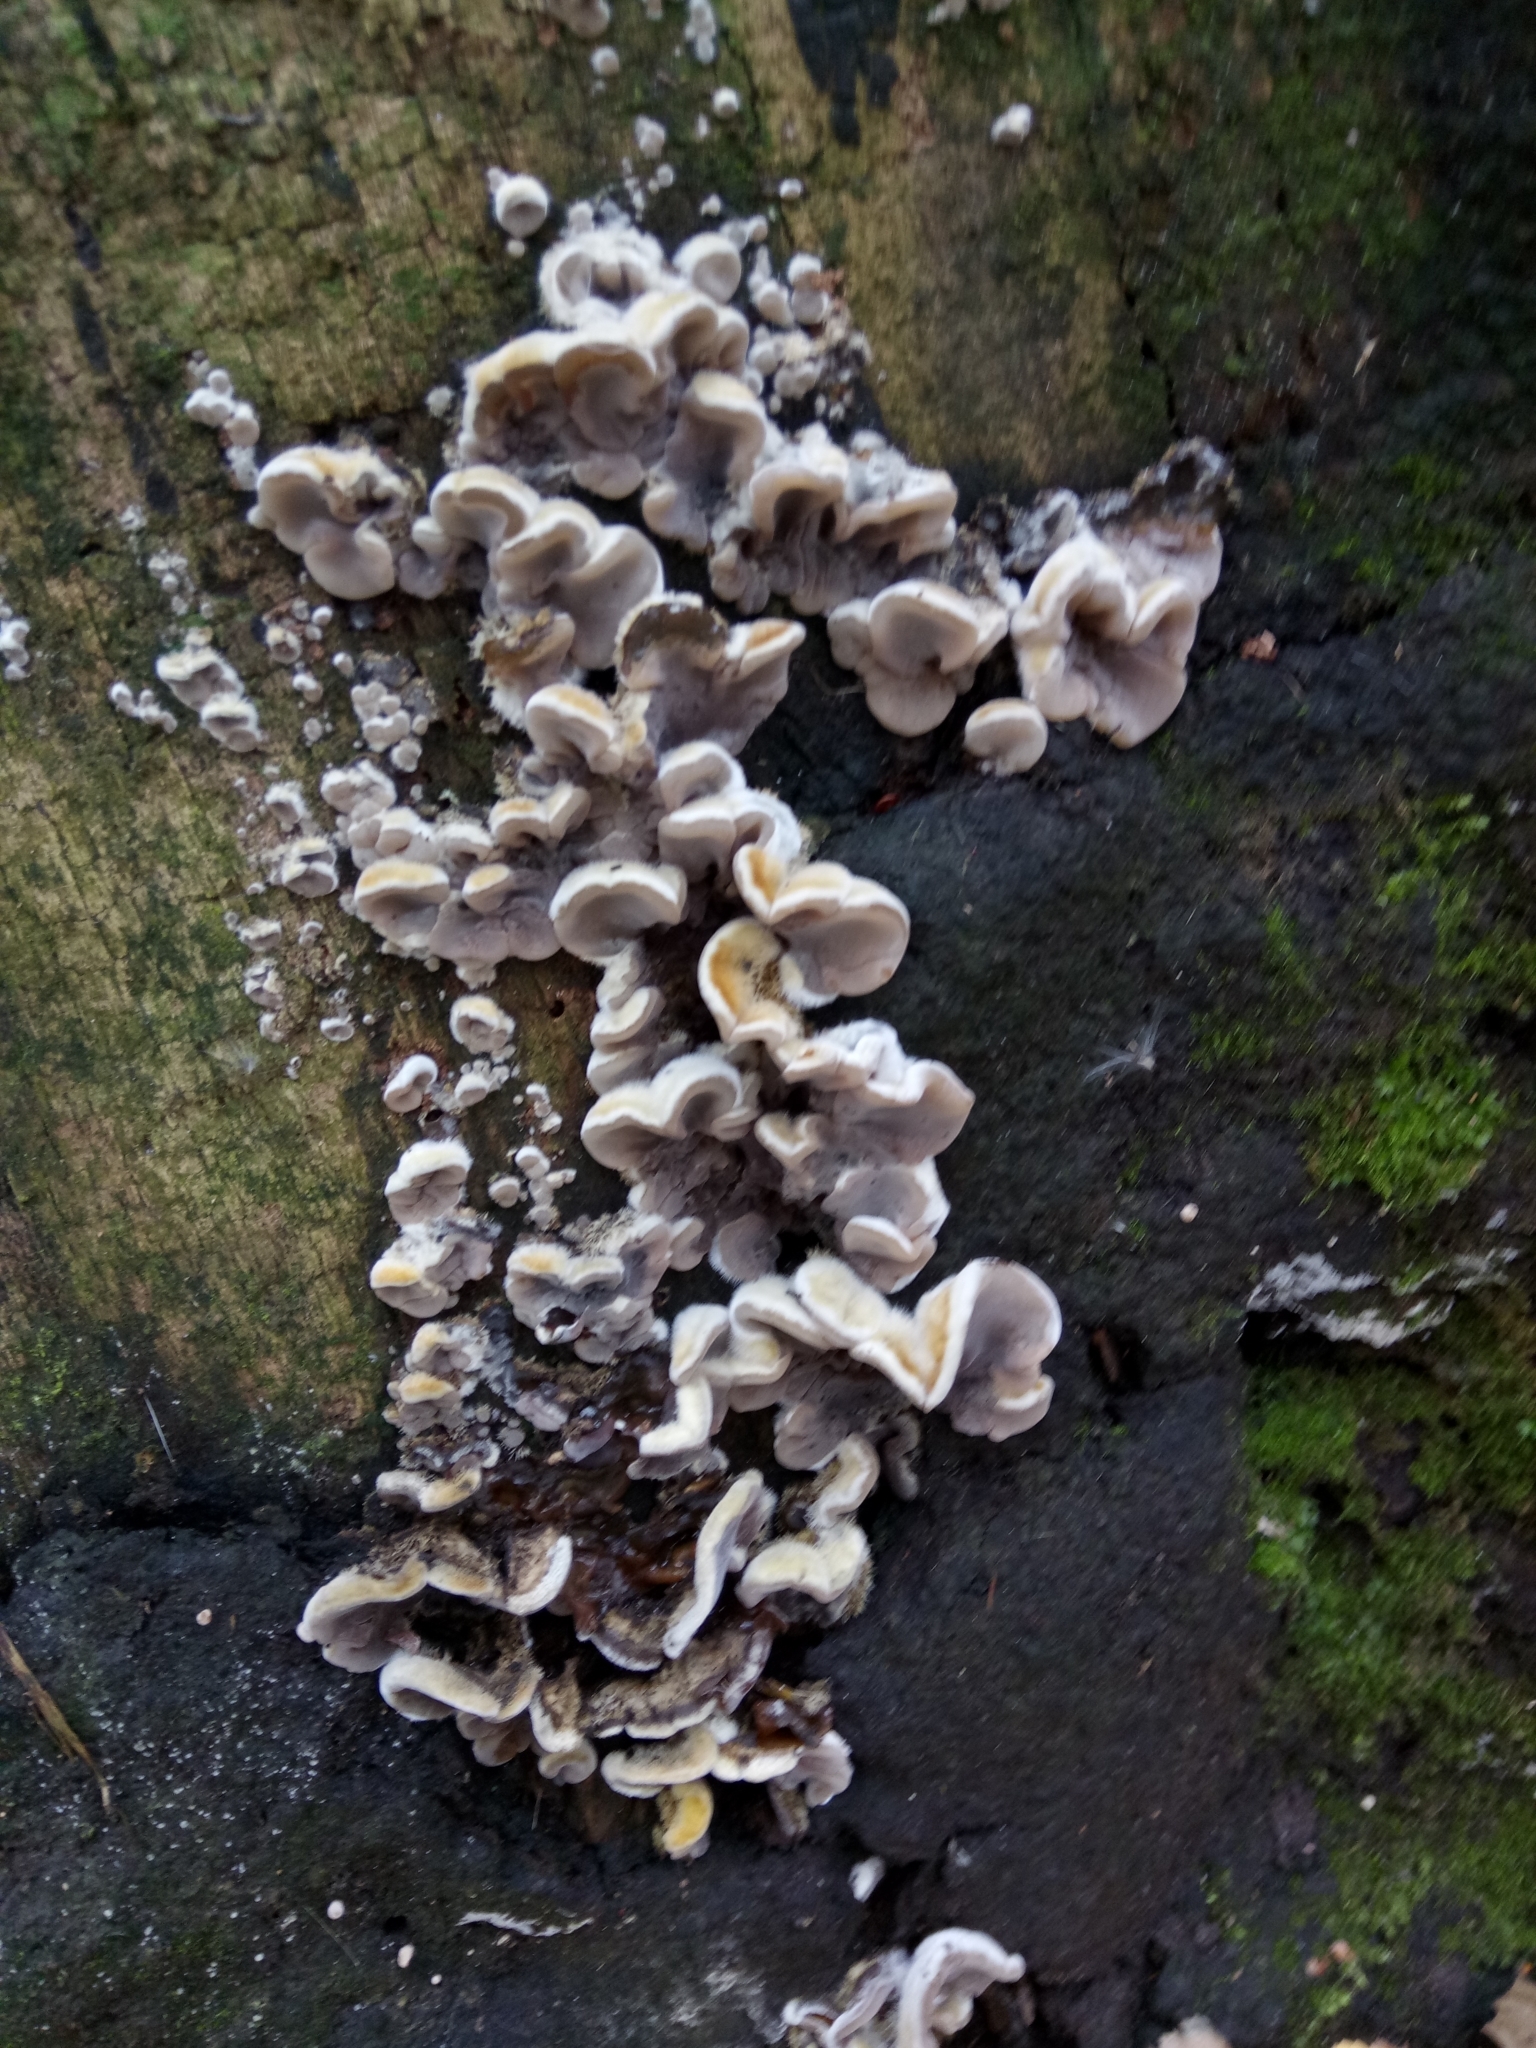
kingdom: Fungi
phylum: Basidiomycota
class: Agaricomycetes
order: Polyporales
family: Phanerochaetaceae
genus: Bjerkandera
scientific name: Bjerkandera adusta
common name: Smoky bracket
